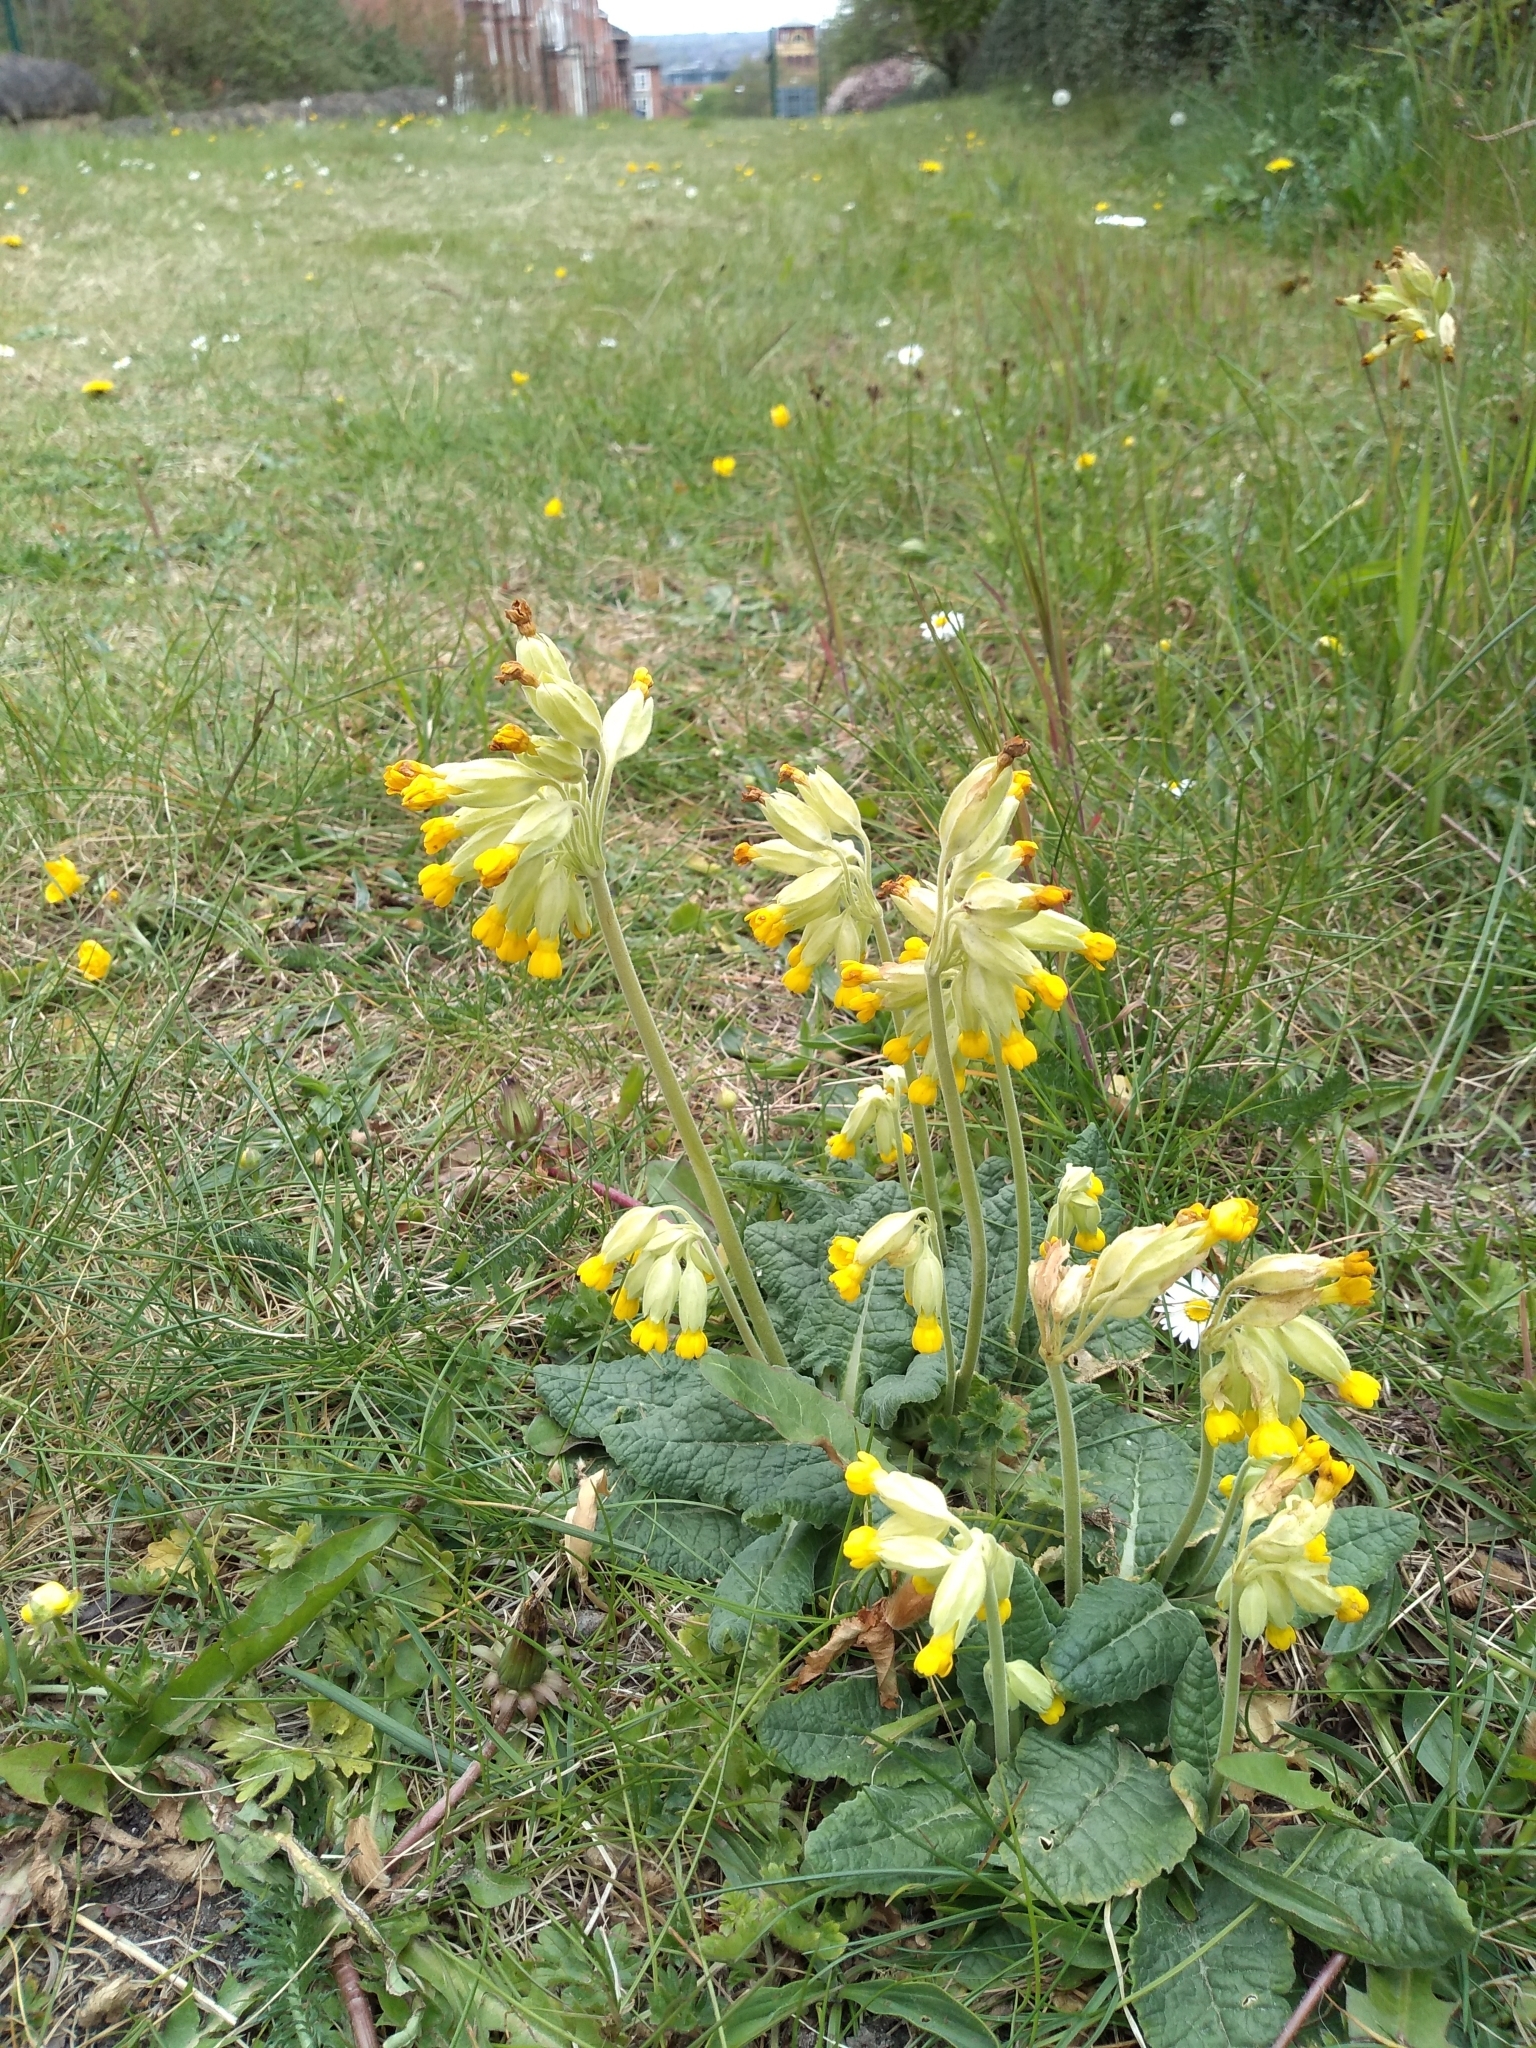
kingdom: Plantae
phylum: Tracheophyta
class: Magnoliopsida
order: Ericales
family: Primulaceae
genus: Primula
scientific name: Primula veris
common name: Cowslip
